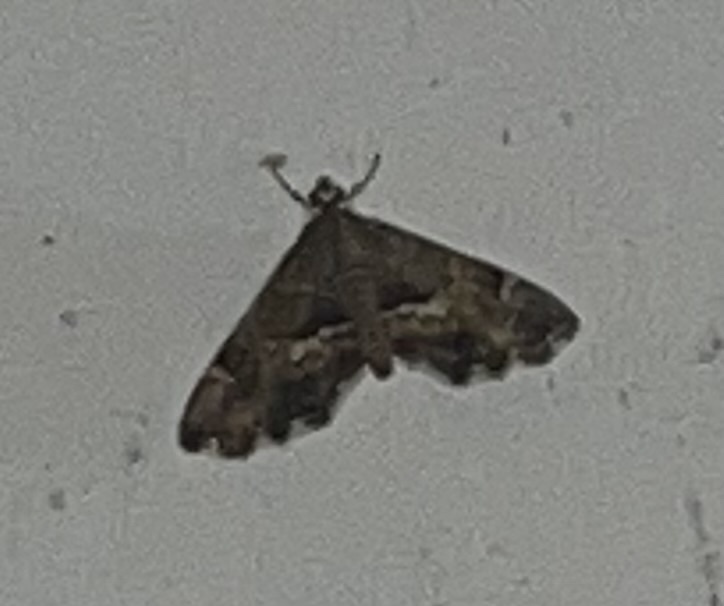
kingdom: Animalia
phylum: Arthropoda
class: Insecta
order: Lepidoptera
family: Crambidae
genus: Hymenia
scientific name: Hymenia perspectalis
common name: Spotted beet webworm
